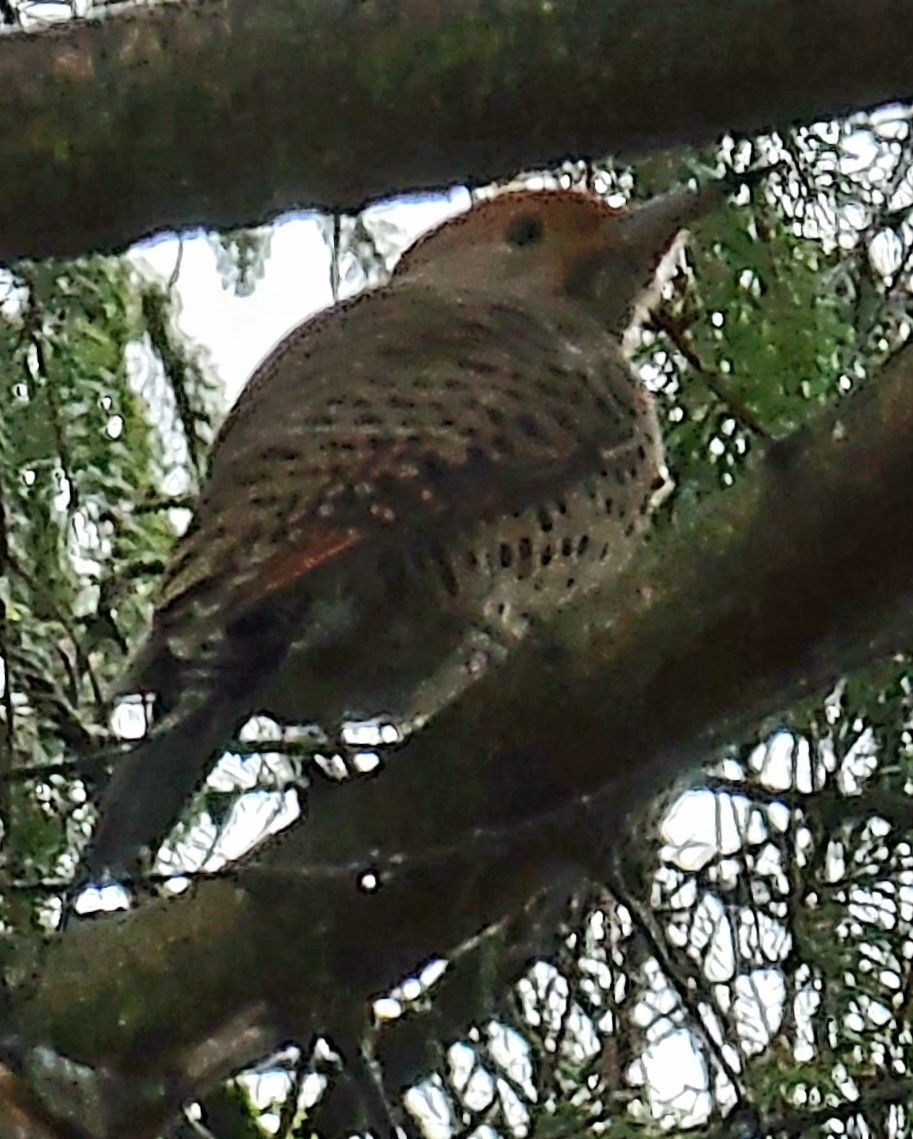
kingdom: Animalia
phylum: Chordata
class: Aves
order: Piciformes
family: Picidae
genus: Colaptes
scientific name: Colaptes auratus
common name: Northern flicker
